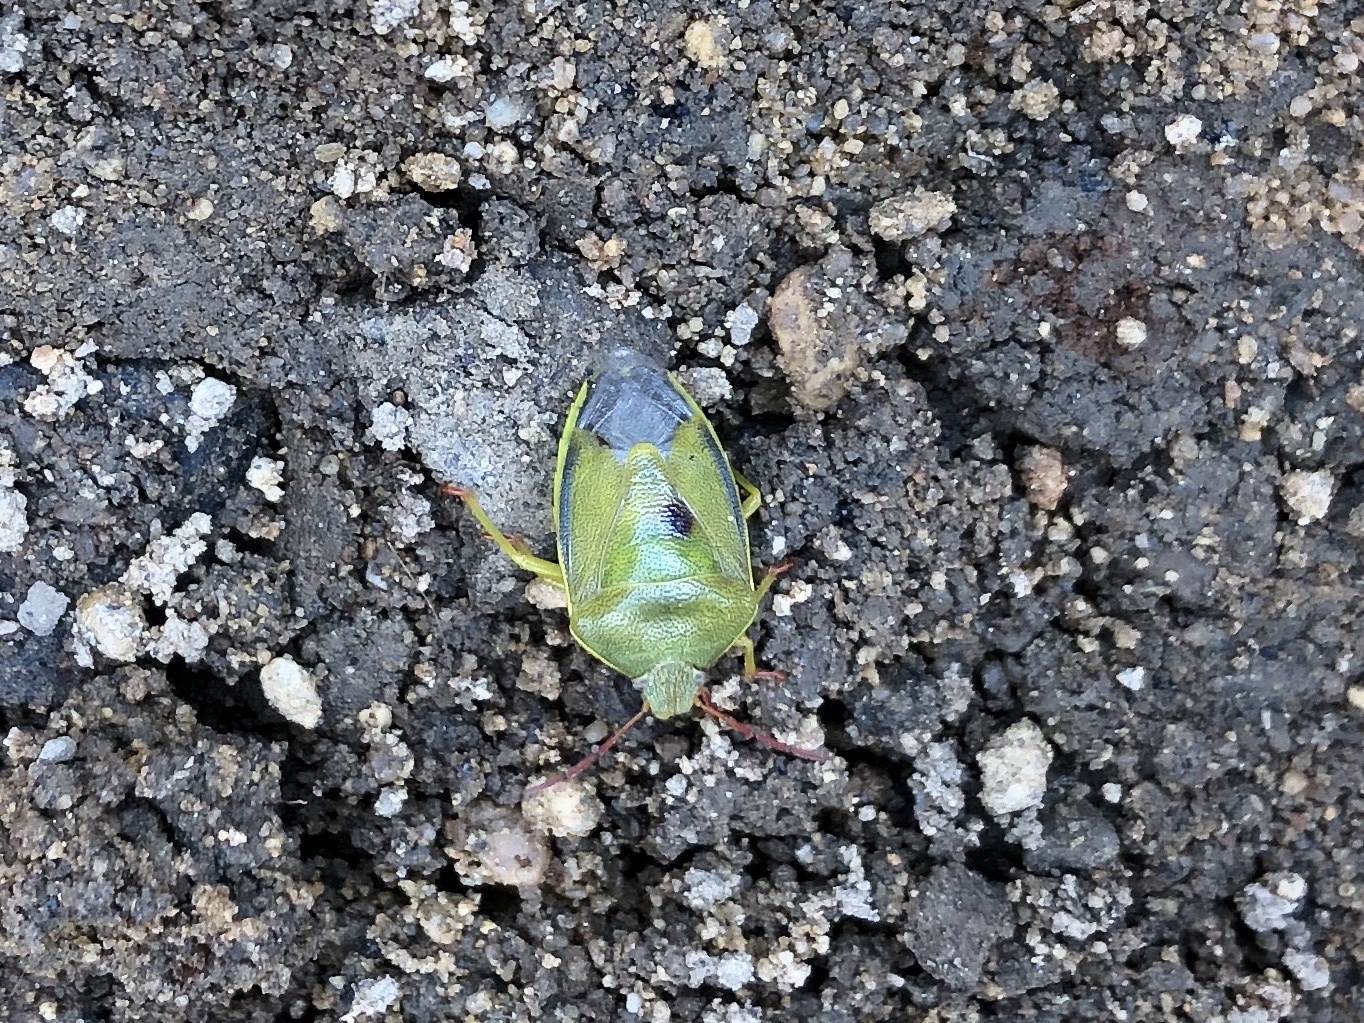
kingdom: Animalia
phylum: Arthropoda
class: Insecta
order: Hemiptera
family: Pentatomidae
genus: Piezodorus
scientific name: Piezodorus lituratus
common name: Stink bug
